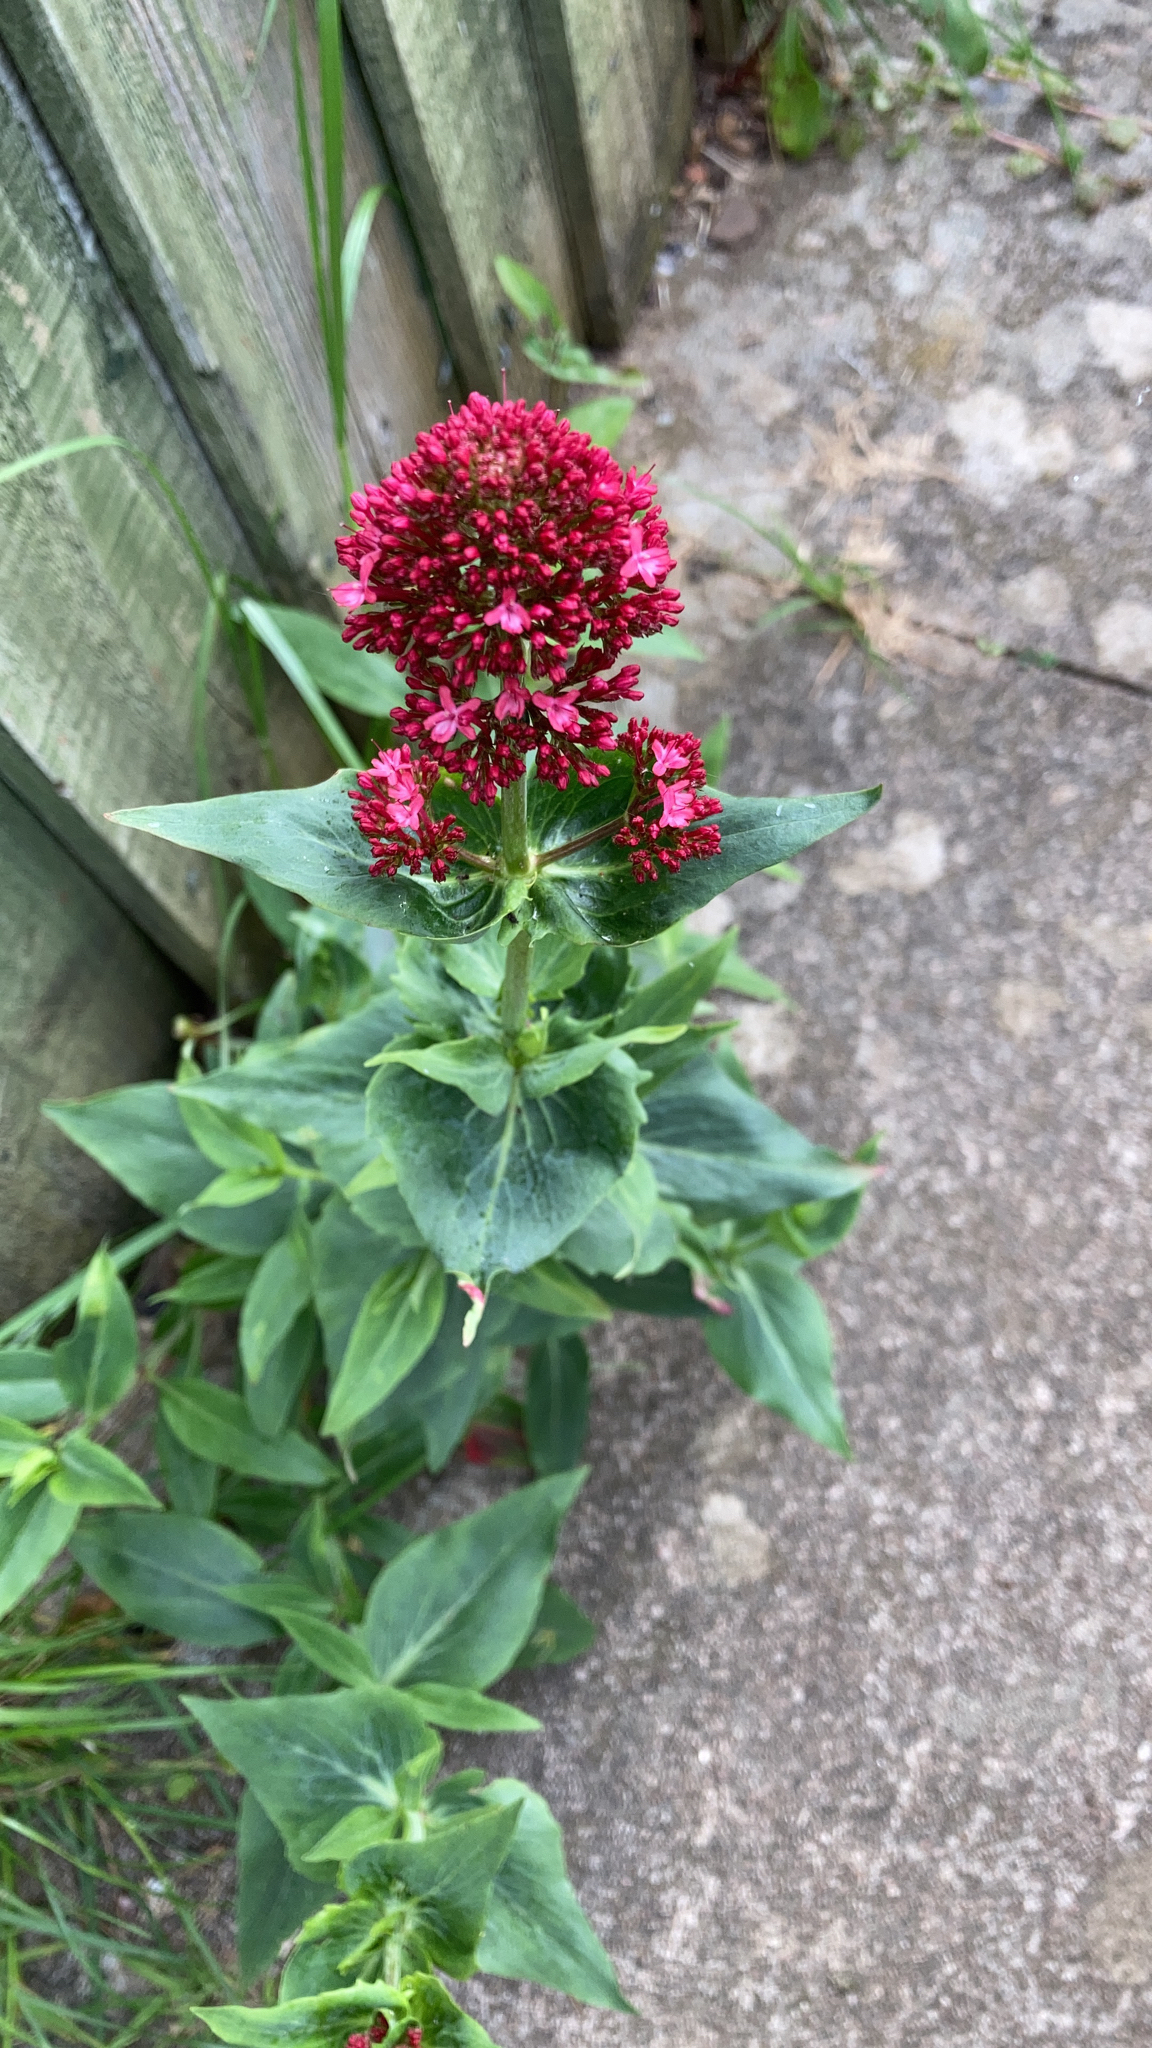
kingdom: Plantae
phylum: Tracheophyta
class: Magnoliopsida
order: Dipsacales
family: Caprifoliaceae
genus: Centranthus
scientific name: Centranthus ruber
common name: Red valerian
